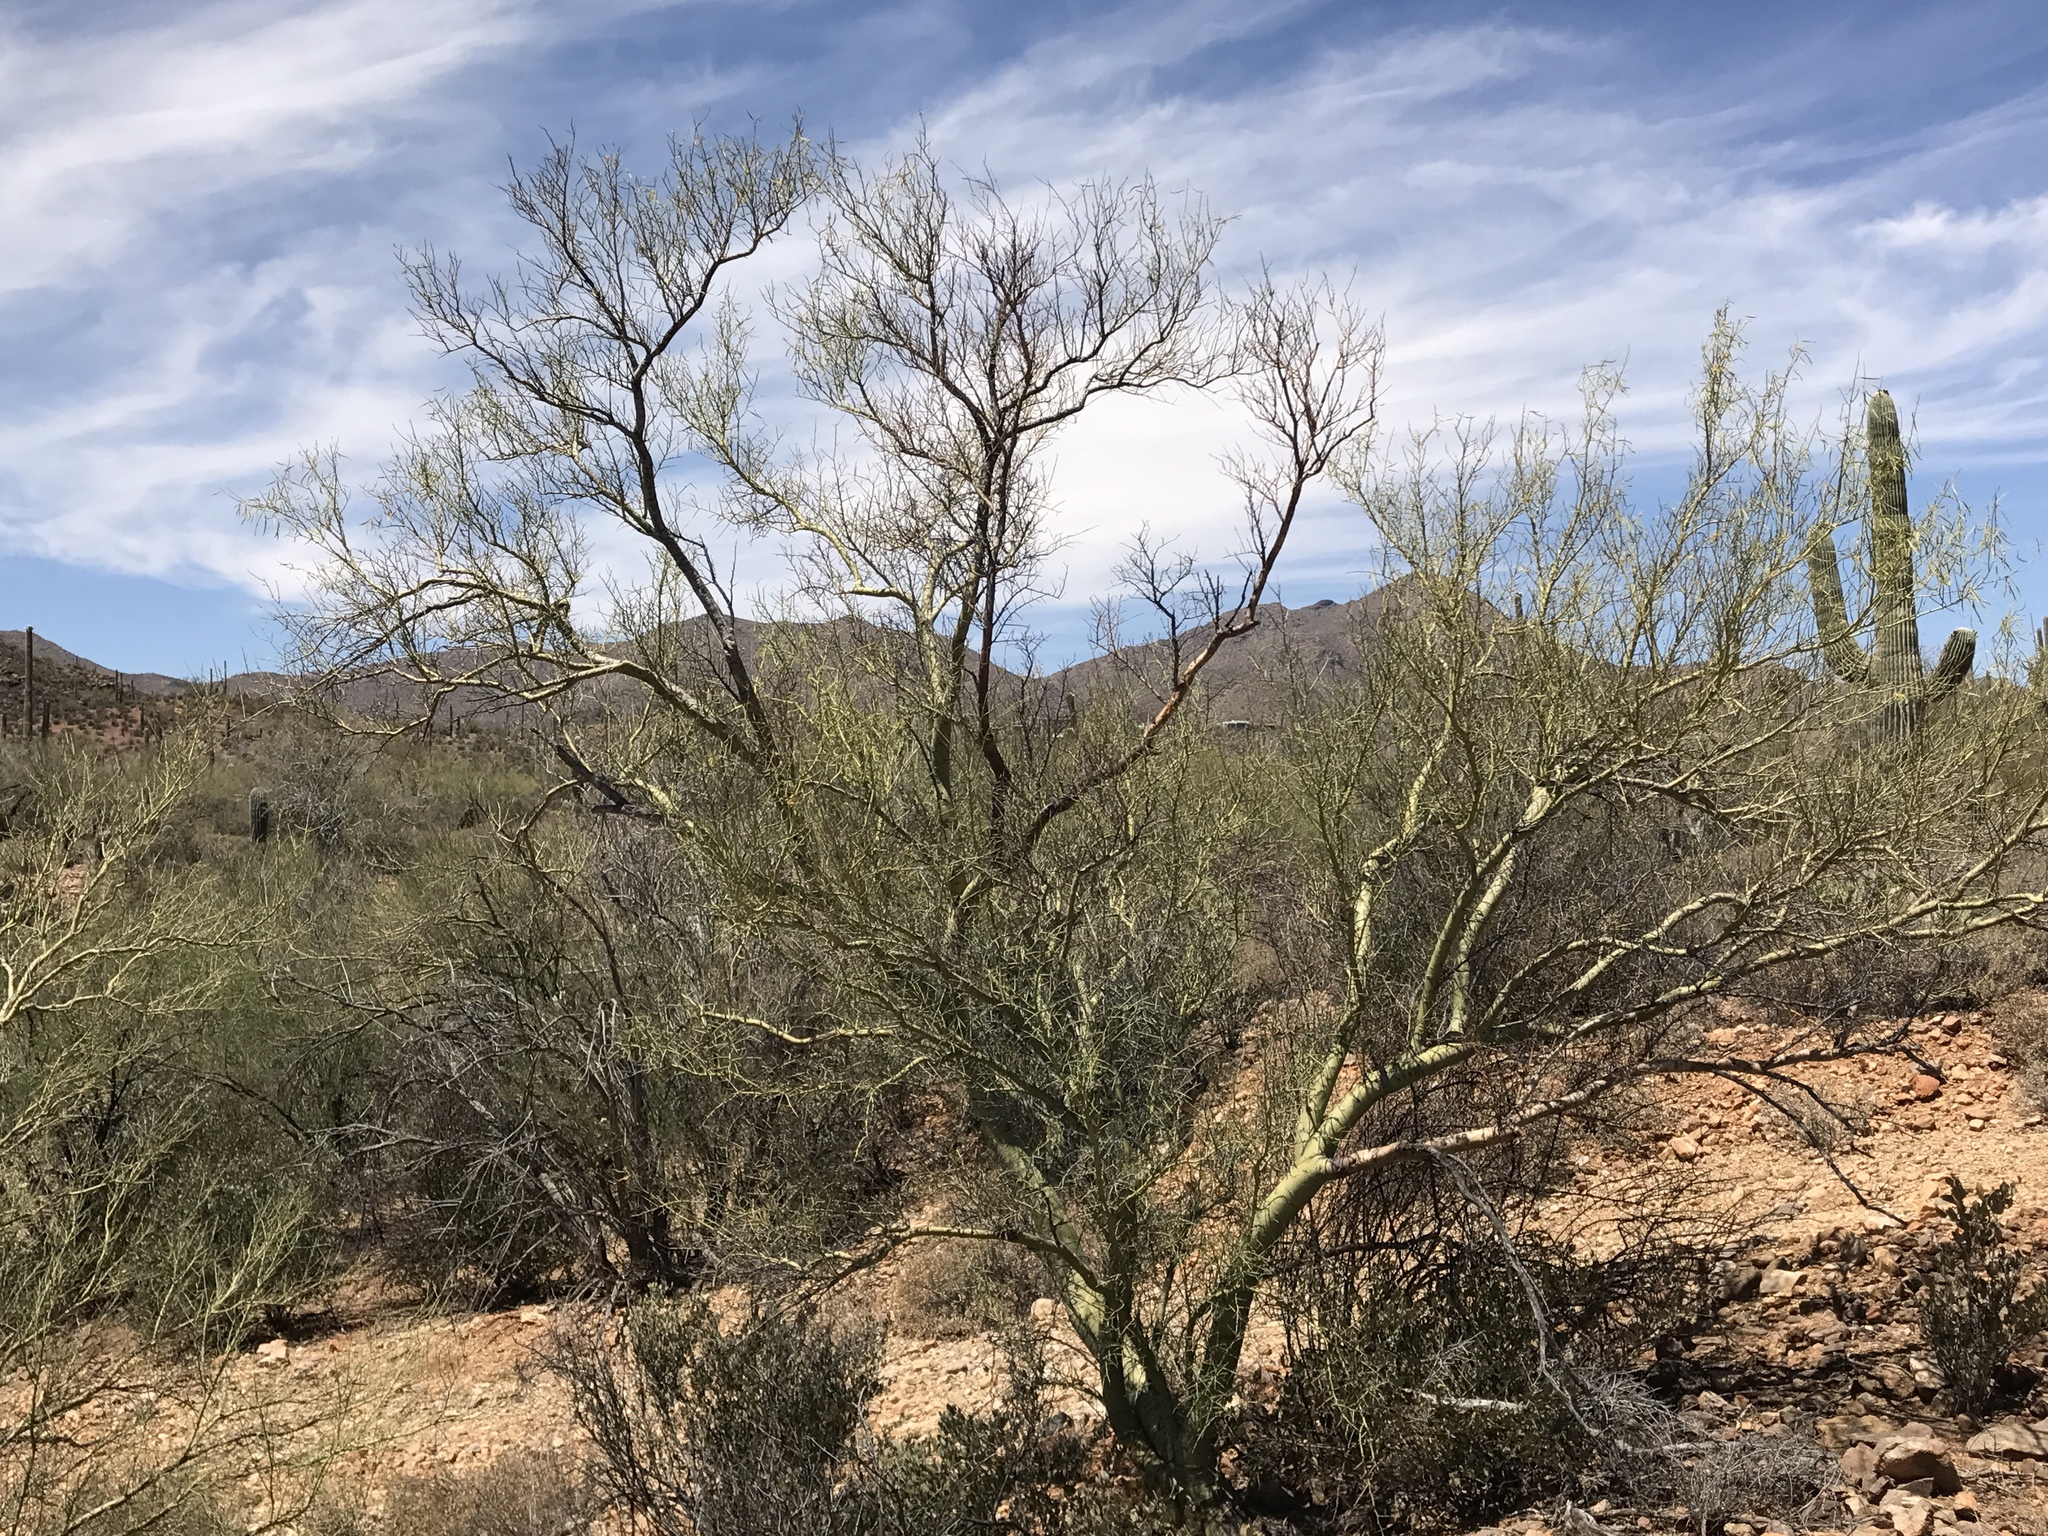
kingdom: Plantae
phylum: Tracheophyta
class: Magnoliopsida
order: Fabales
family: Fabaceae
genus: Parkinsonia
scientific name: Parkinsonia microphylla
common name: Yellow paloverde
